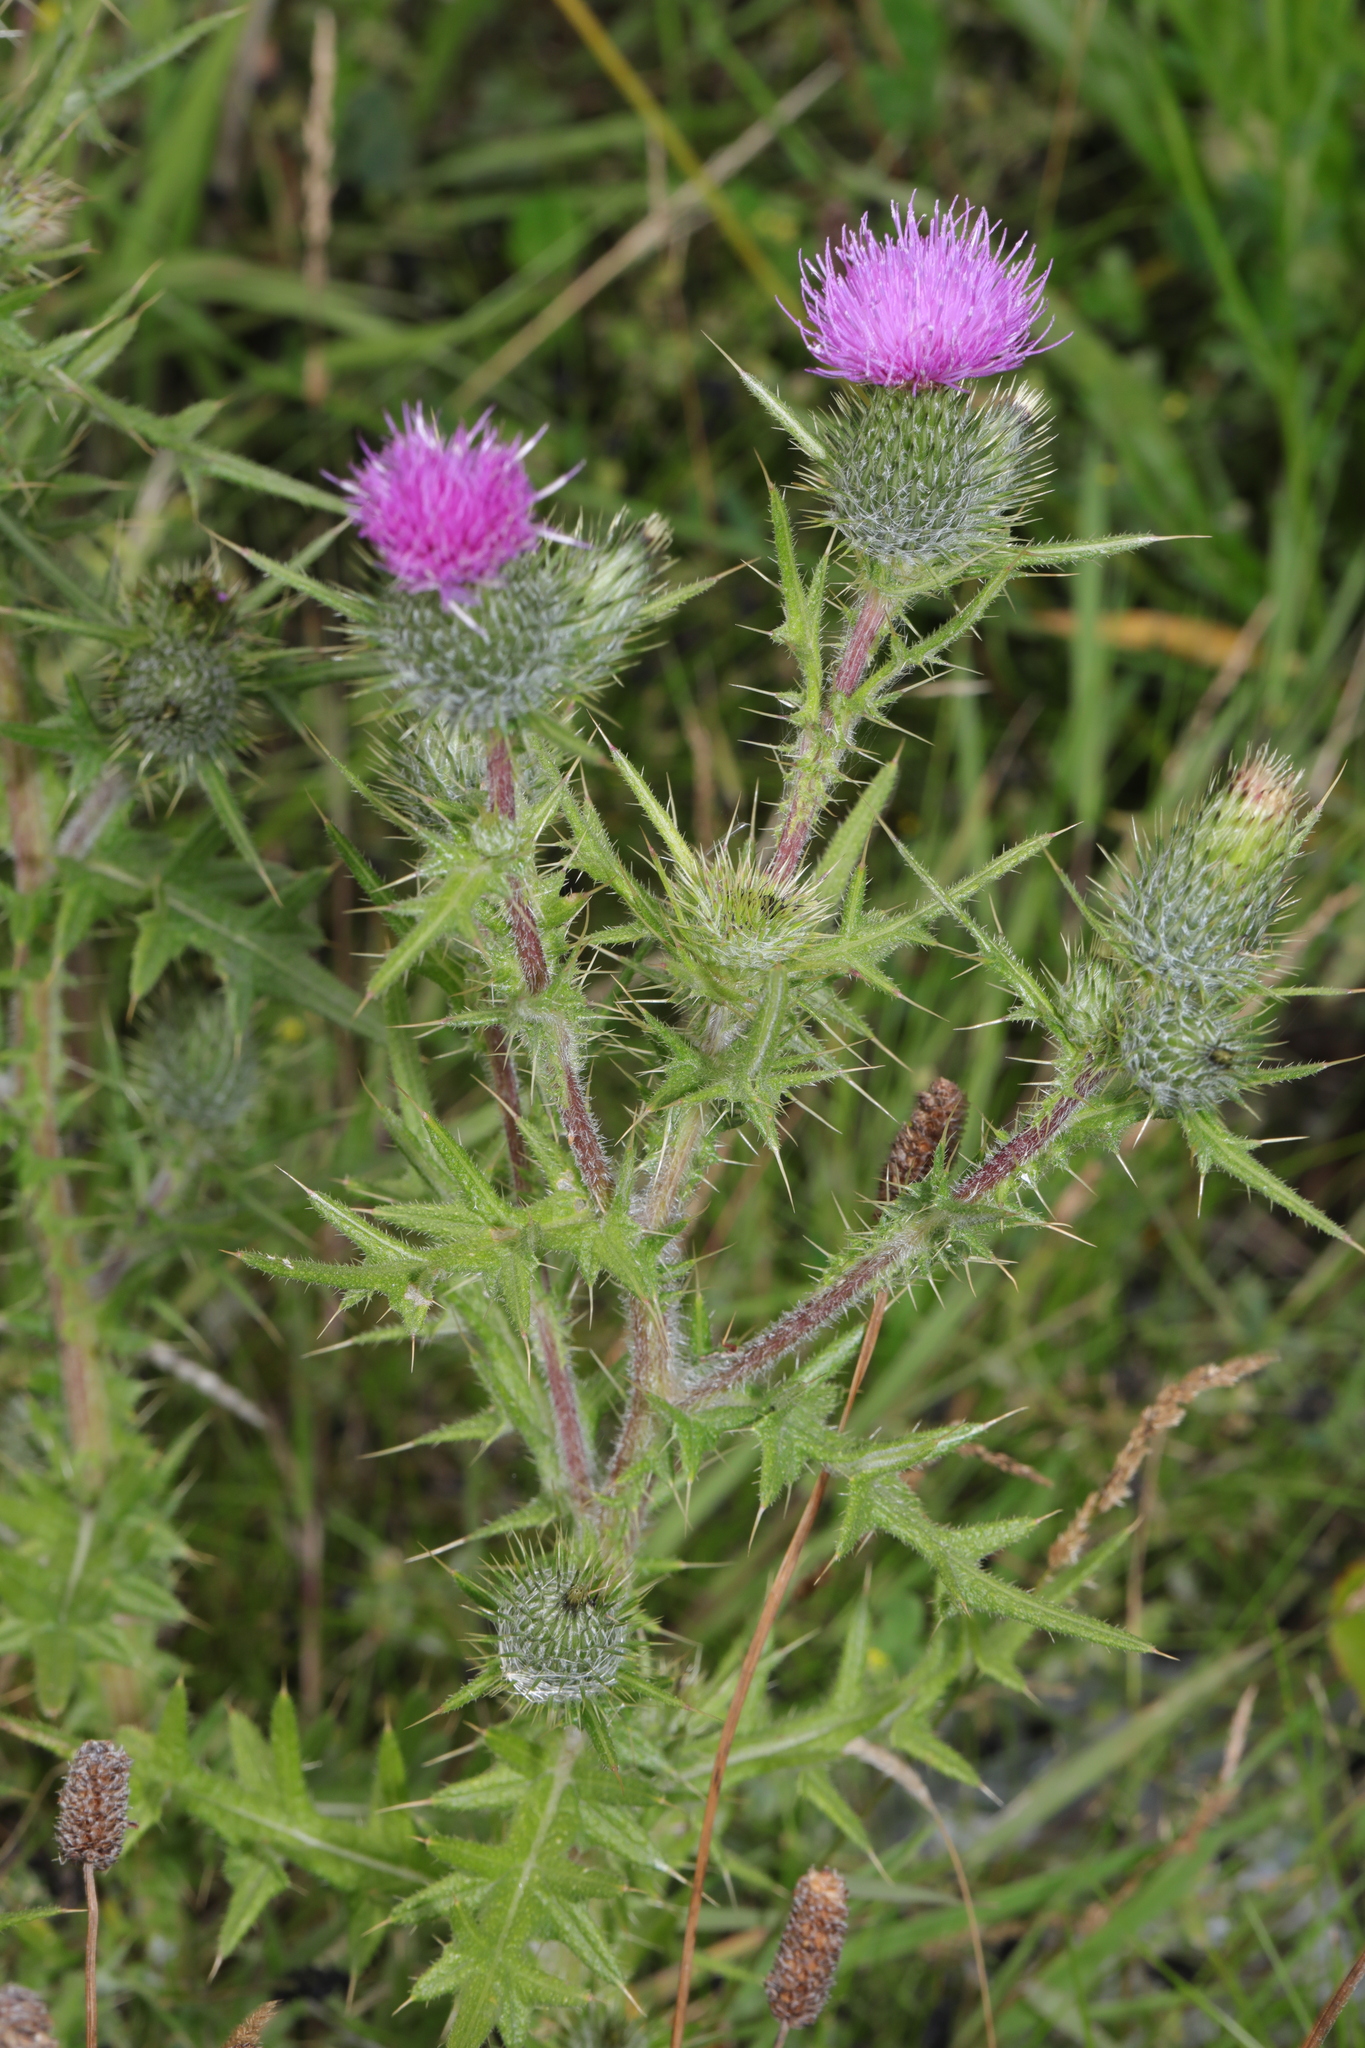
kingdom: Plantae
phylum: Tracheophyta
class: Magnoliopsida
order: Asterales
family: Asteraceae
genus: Cirsium
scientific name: Cirsium vulgare
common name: Bull thistle
